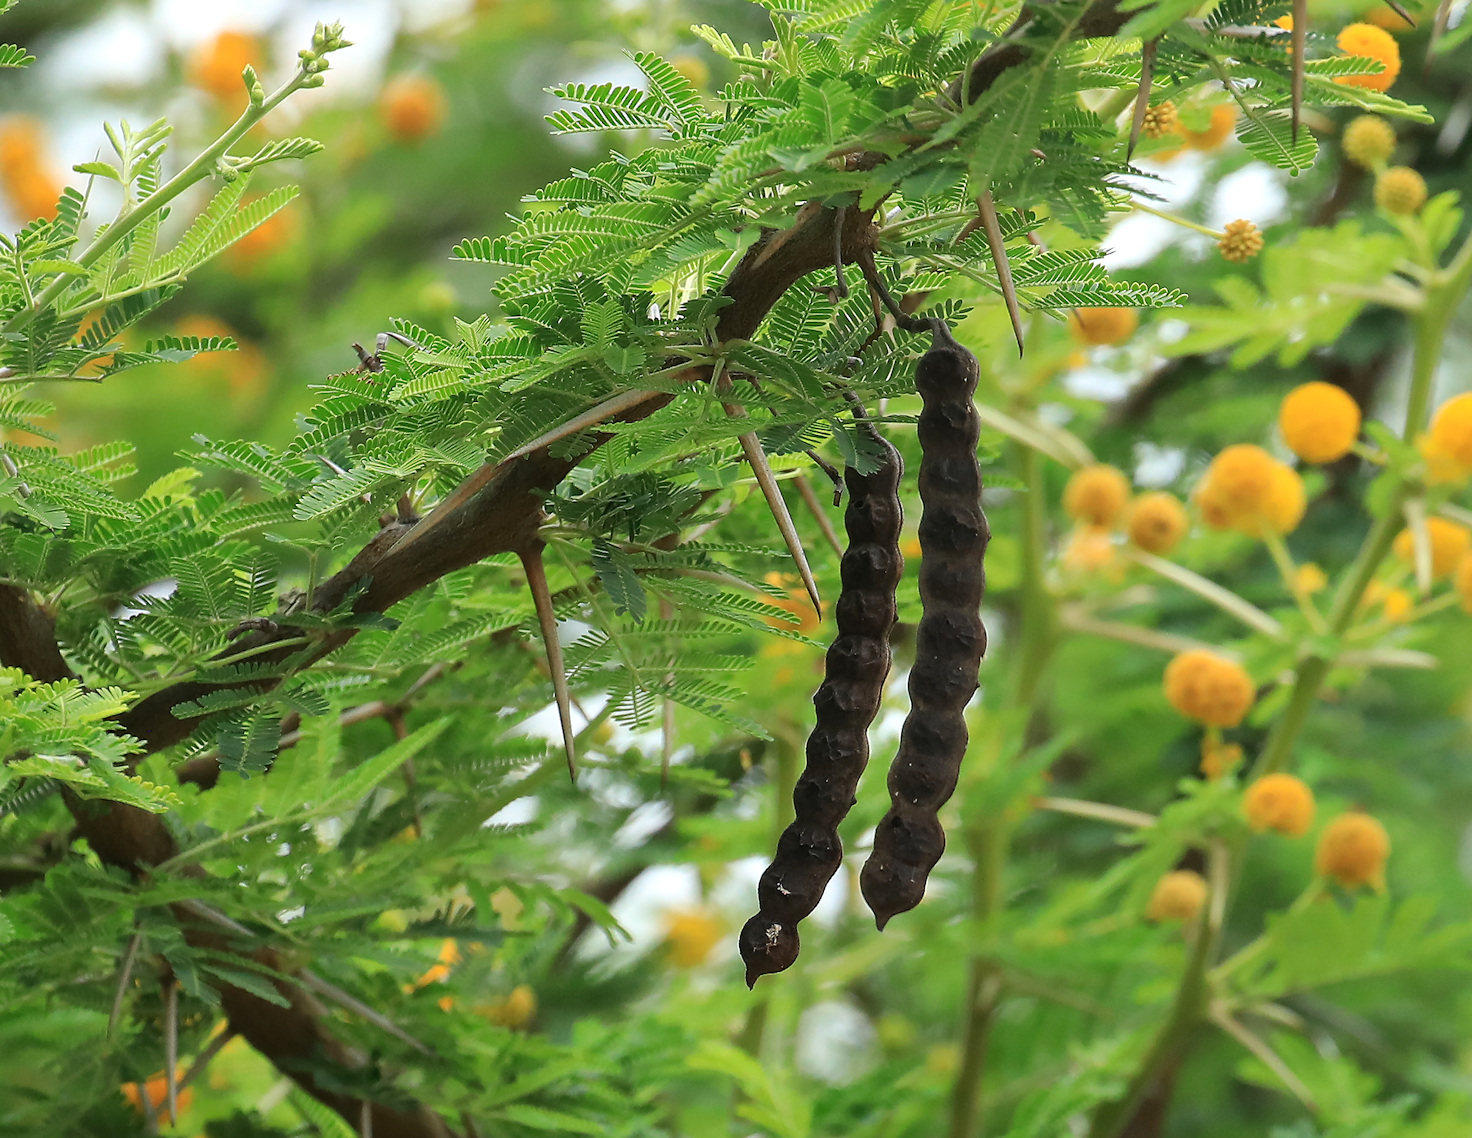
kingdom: Plantae
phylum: Tracheophyta
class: Magnoliopsida
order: Fabales
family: Fabaceae
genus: Vachellia
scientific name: Vachellia nilotica
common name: Arabic gumtree
